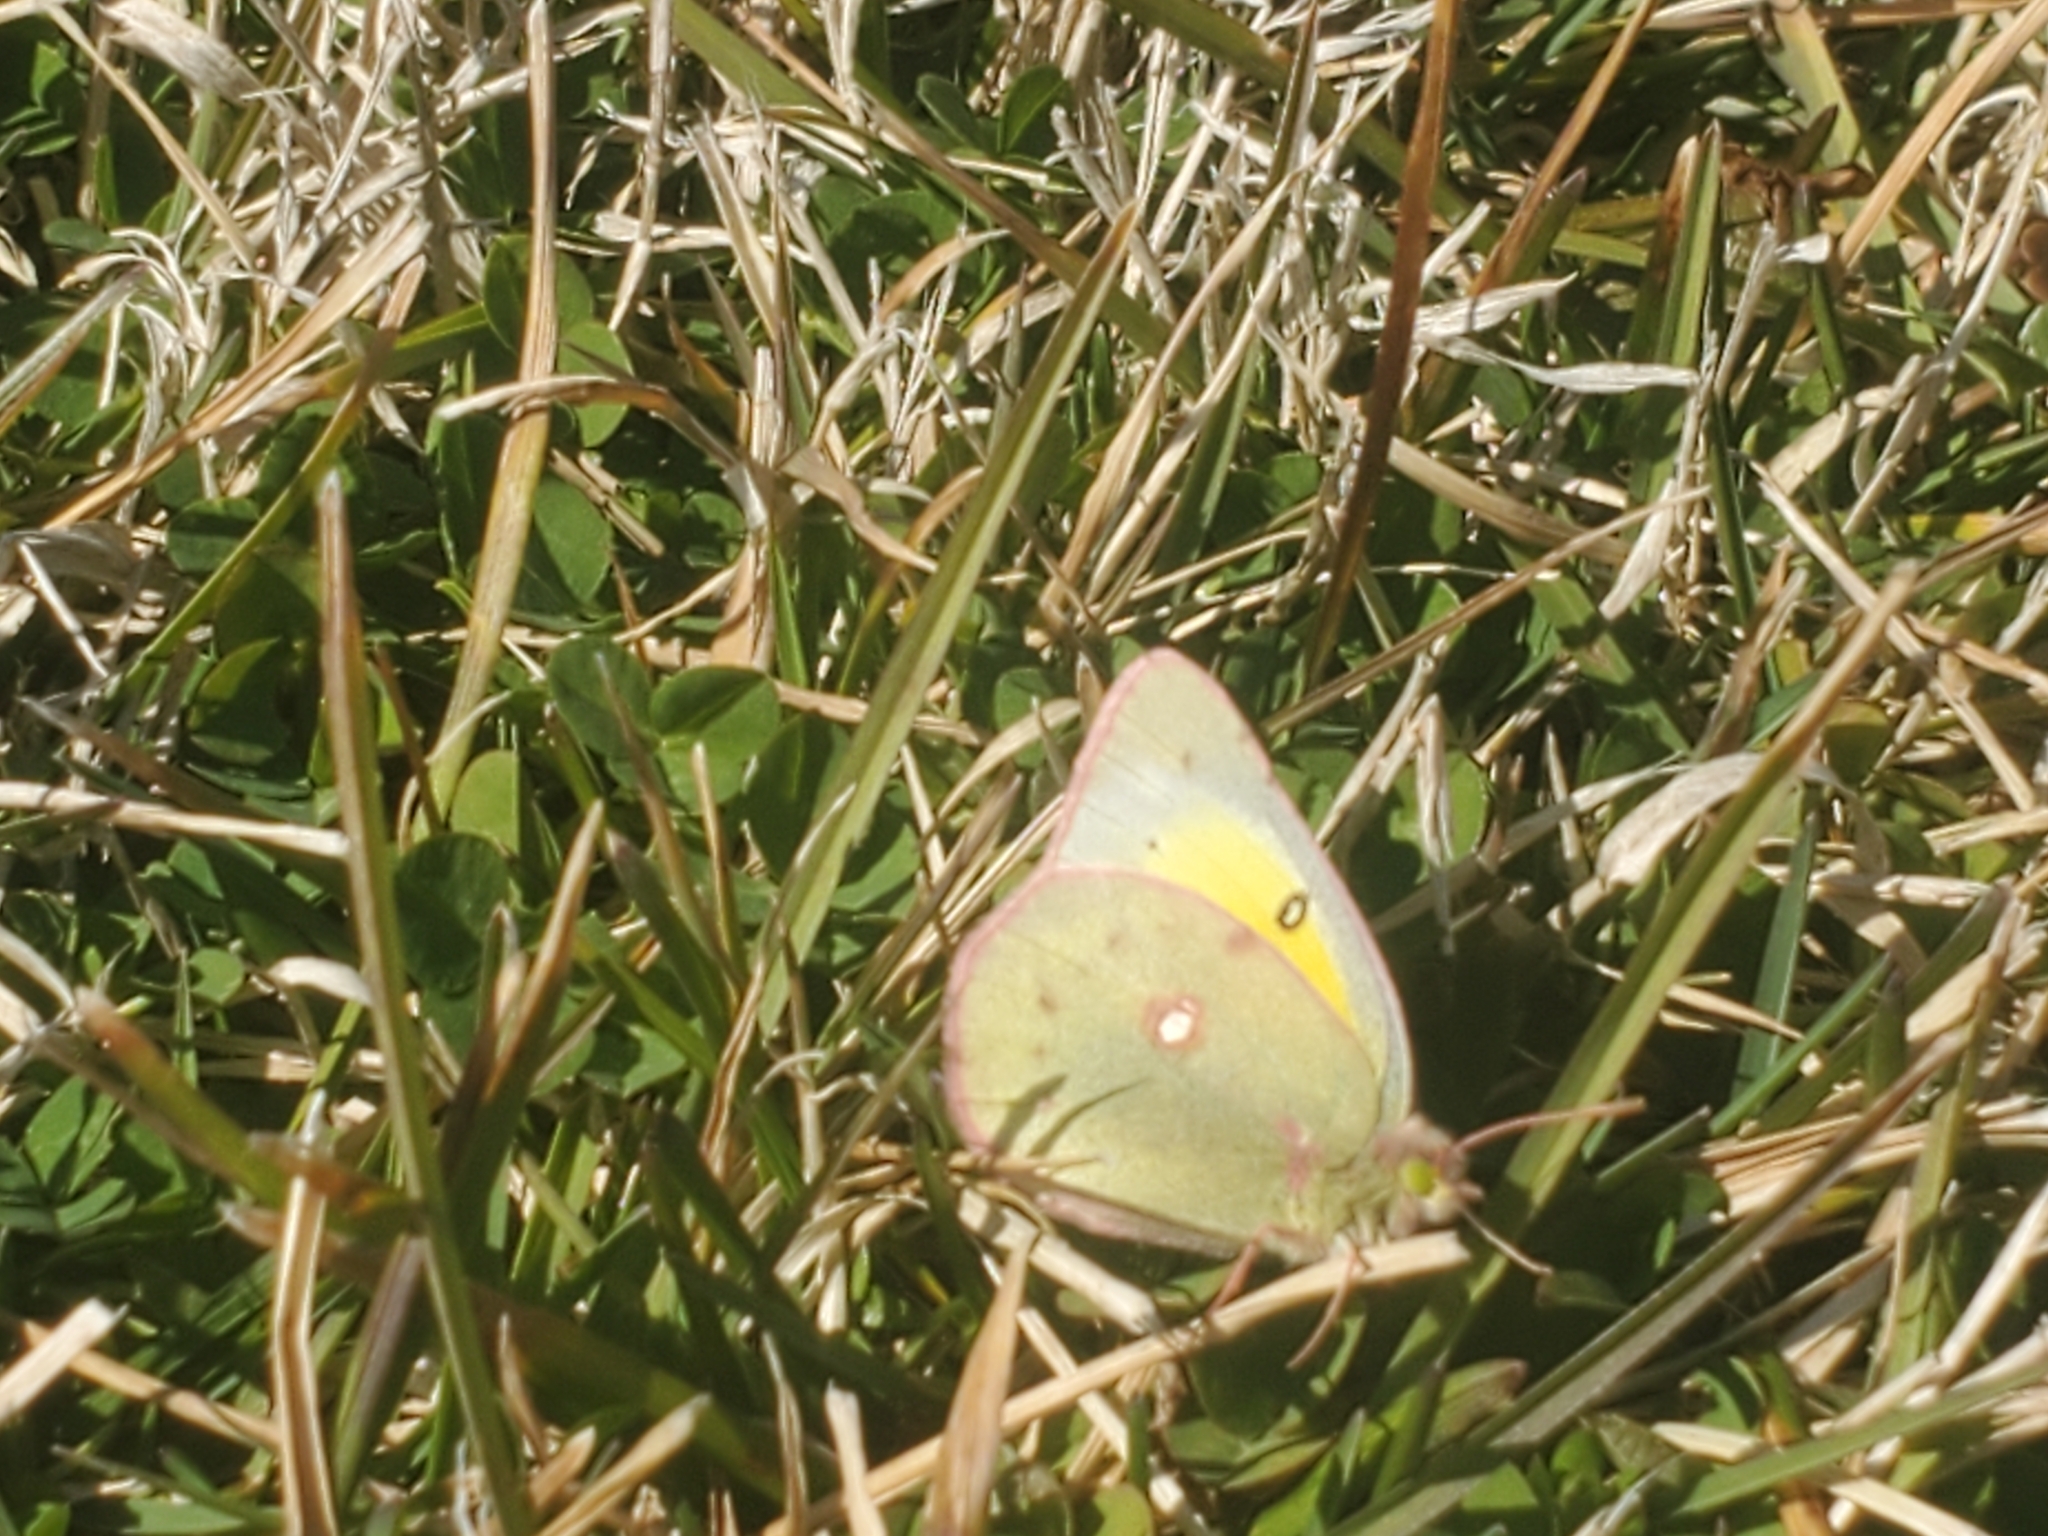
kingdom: Animalia
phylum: Arthropoda
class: Insecta
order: Lepidoptera
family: Pieridae
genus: Colias
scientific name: Colias eurytheme
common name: Alfalfa butterfly
